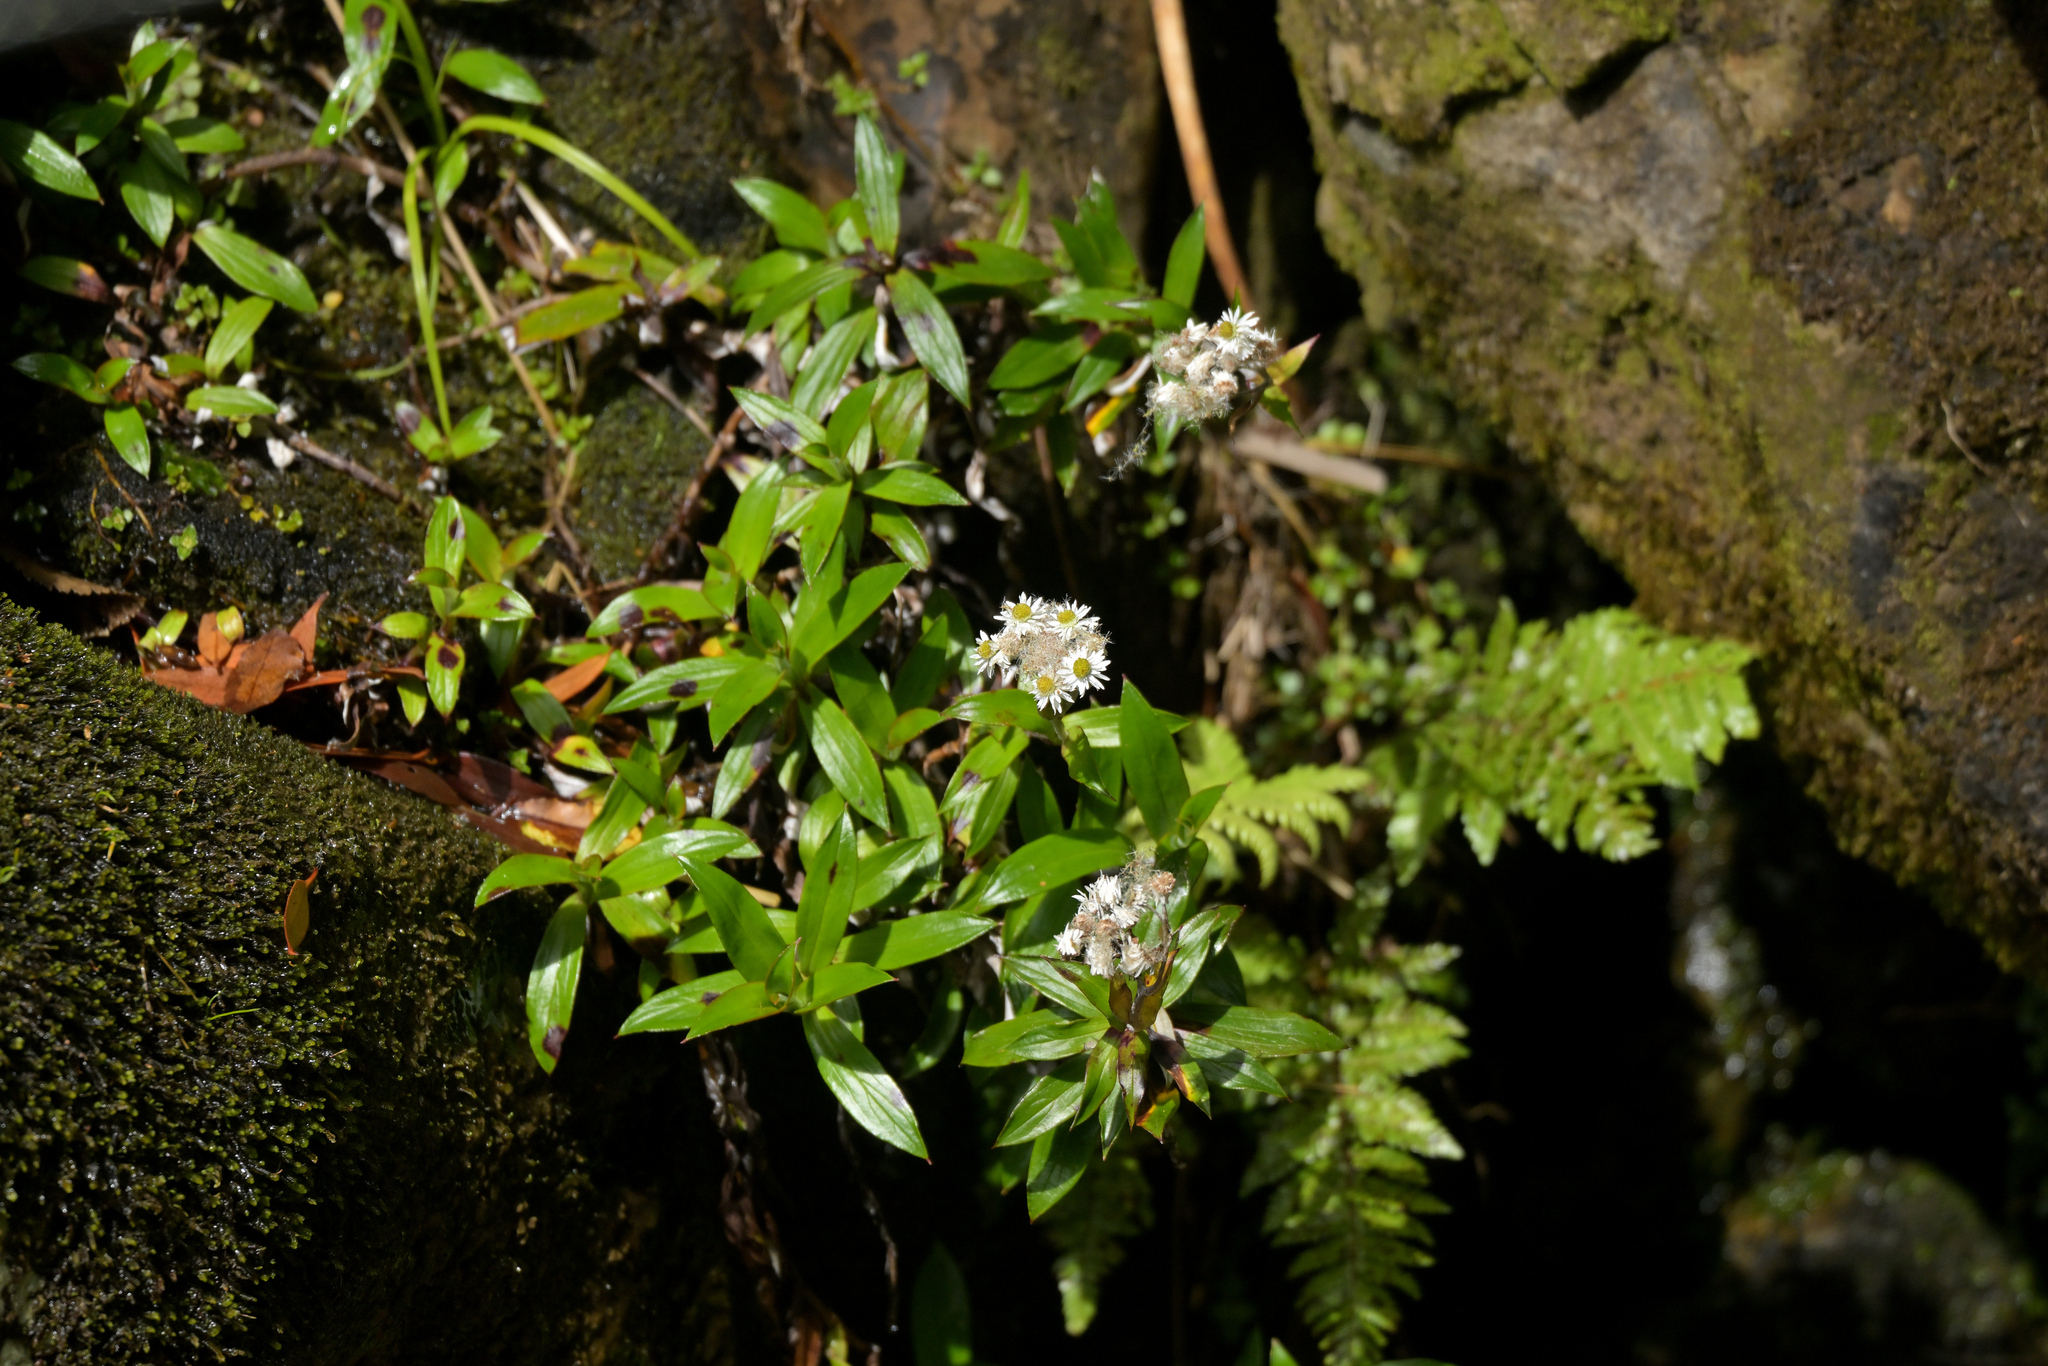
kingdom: Plantae
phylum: Tracheophyta
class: Magnoliopsida
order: Asterales
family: Asteraceae
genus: Anaphalioides
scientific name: Anaphalioides trinervis
